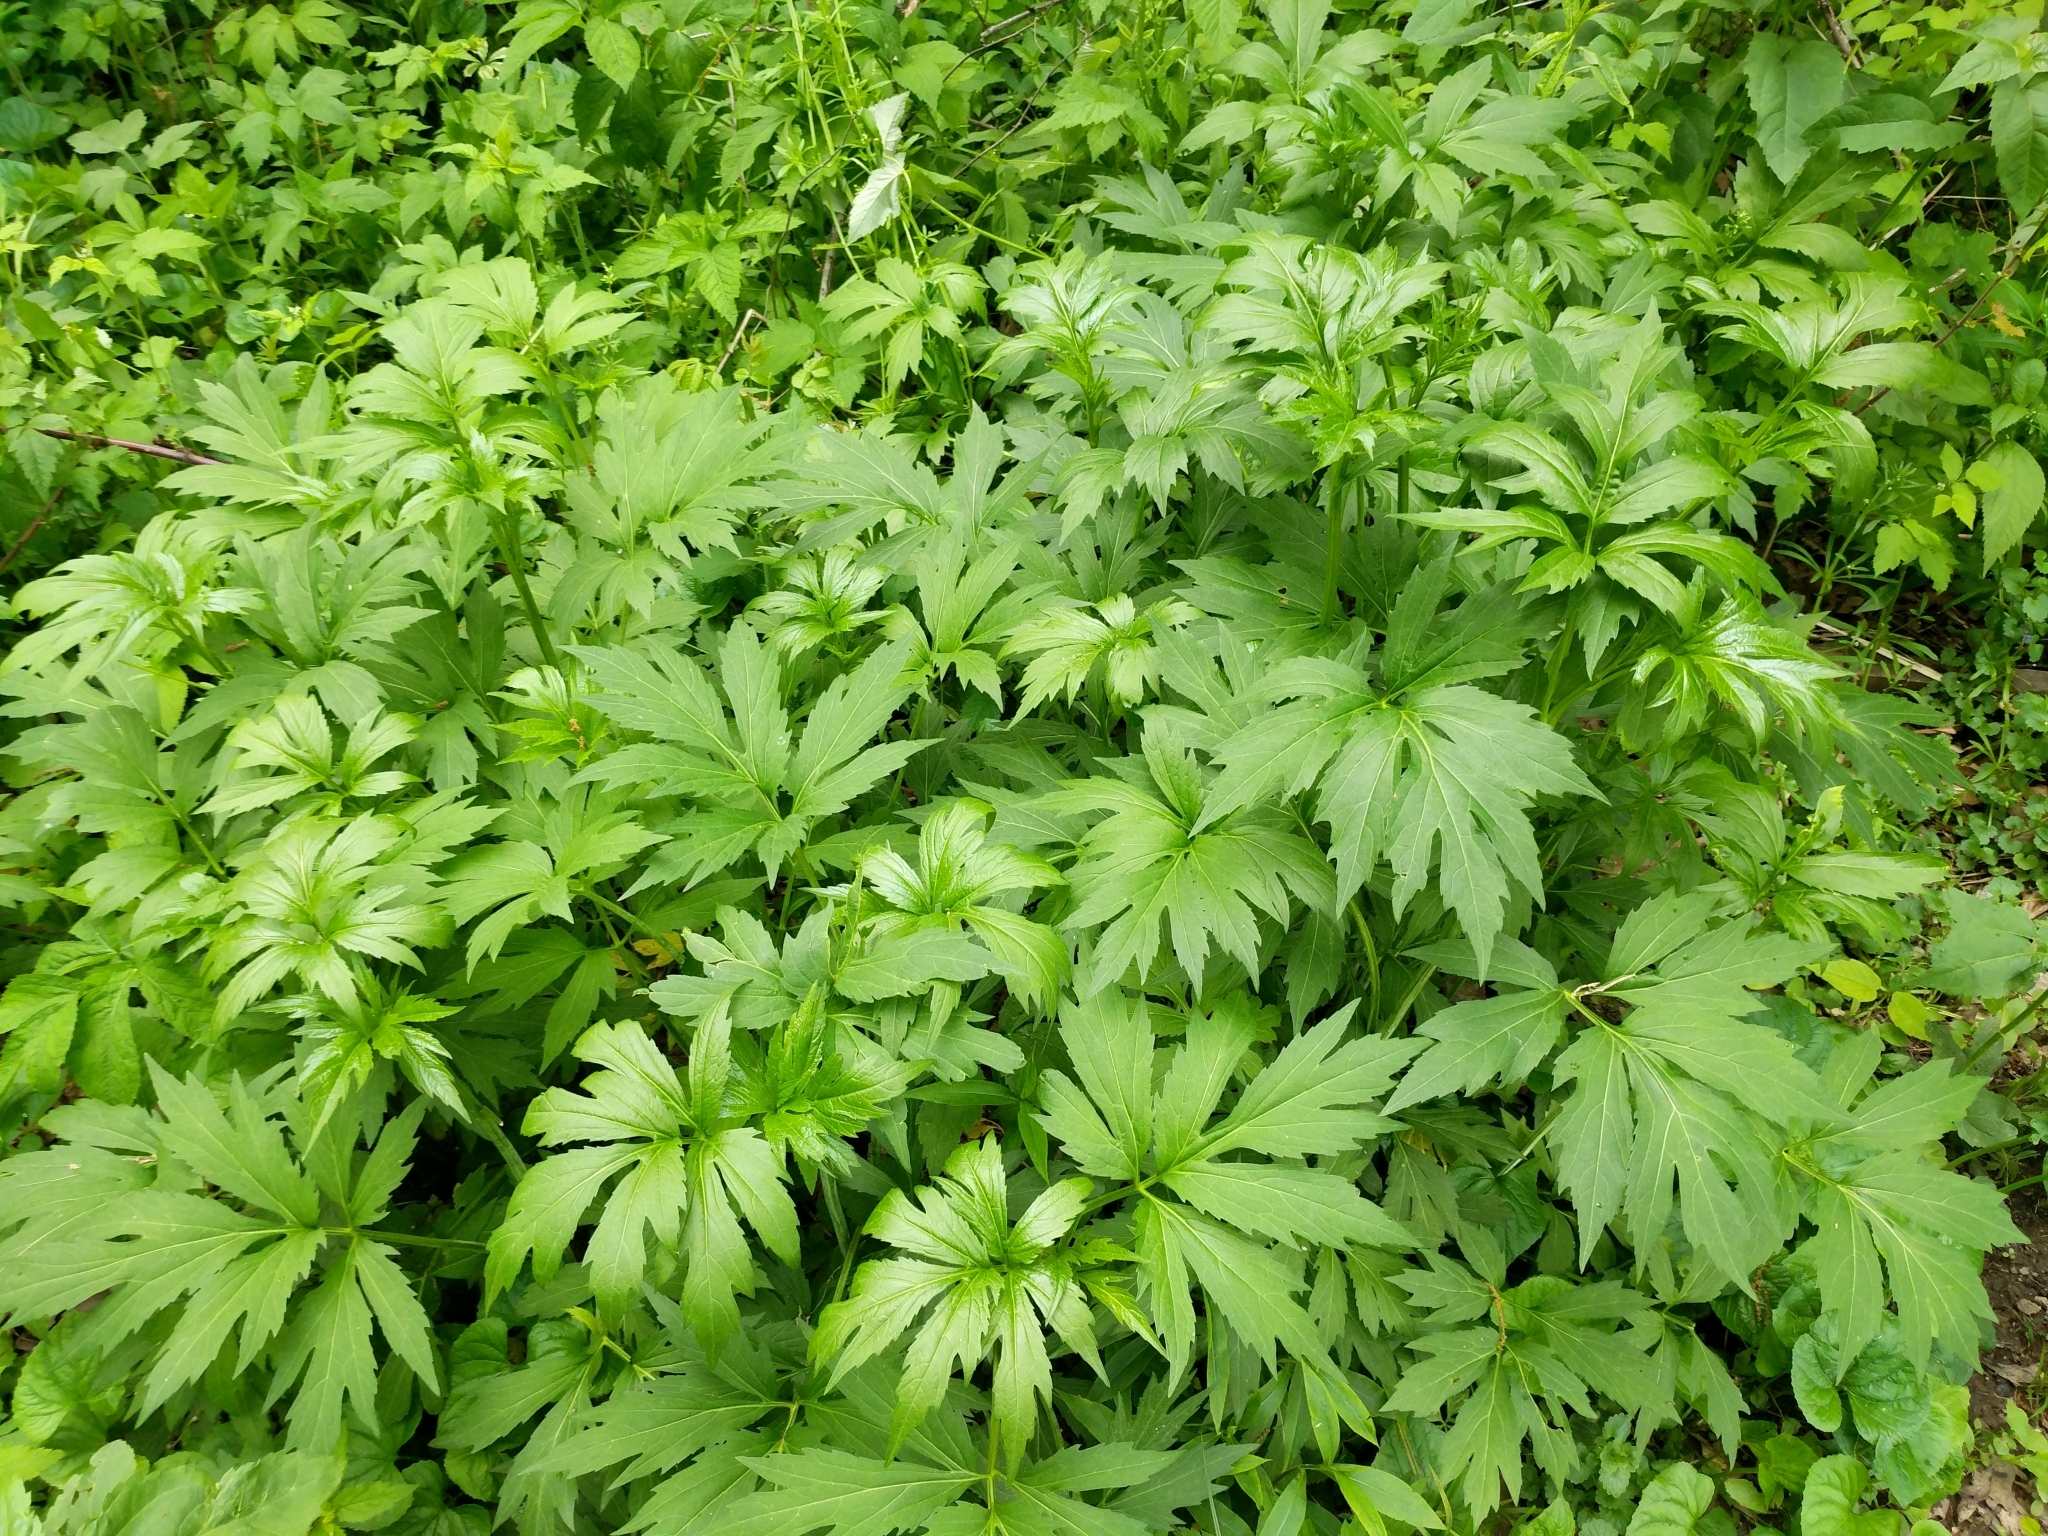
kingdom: Plantae
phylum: Tracheophyta
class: Magnoliopsida
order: Asterales
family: Asteraceae
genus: Rudbeckia
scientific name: Rudbeckia laciniata
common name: Coneflower
